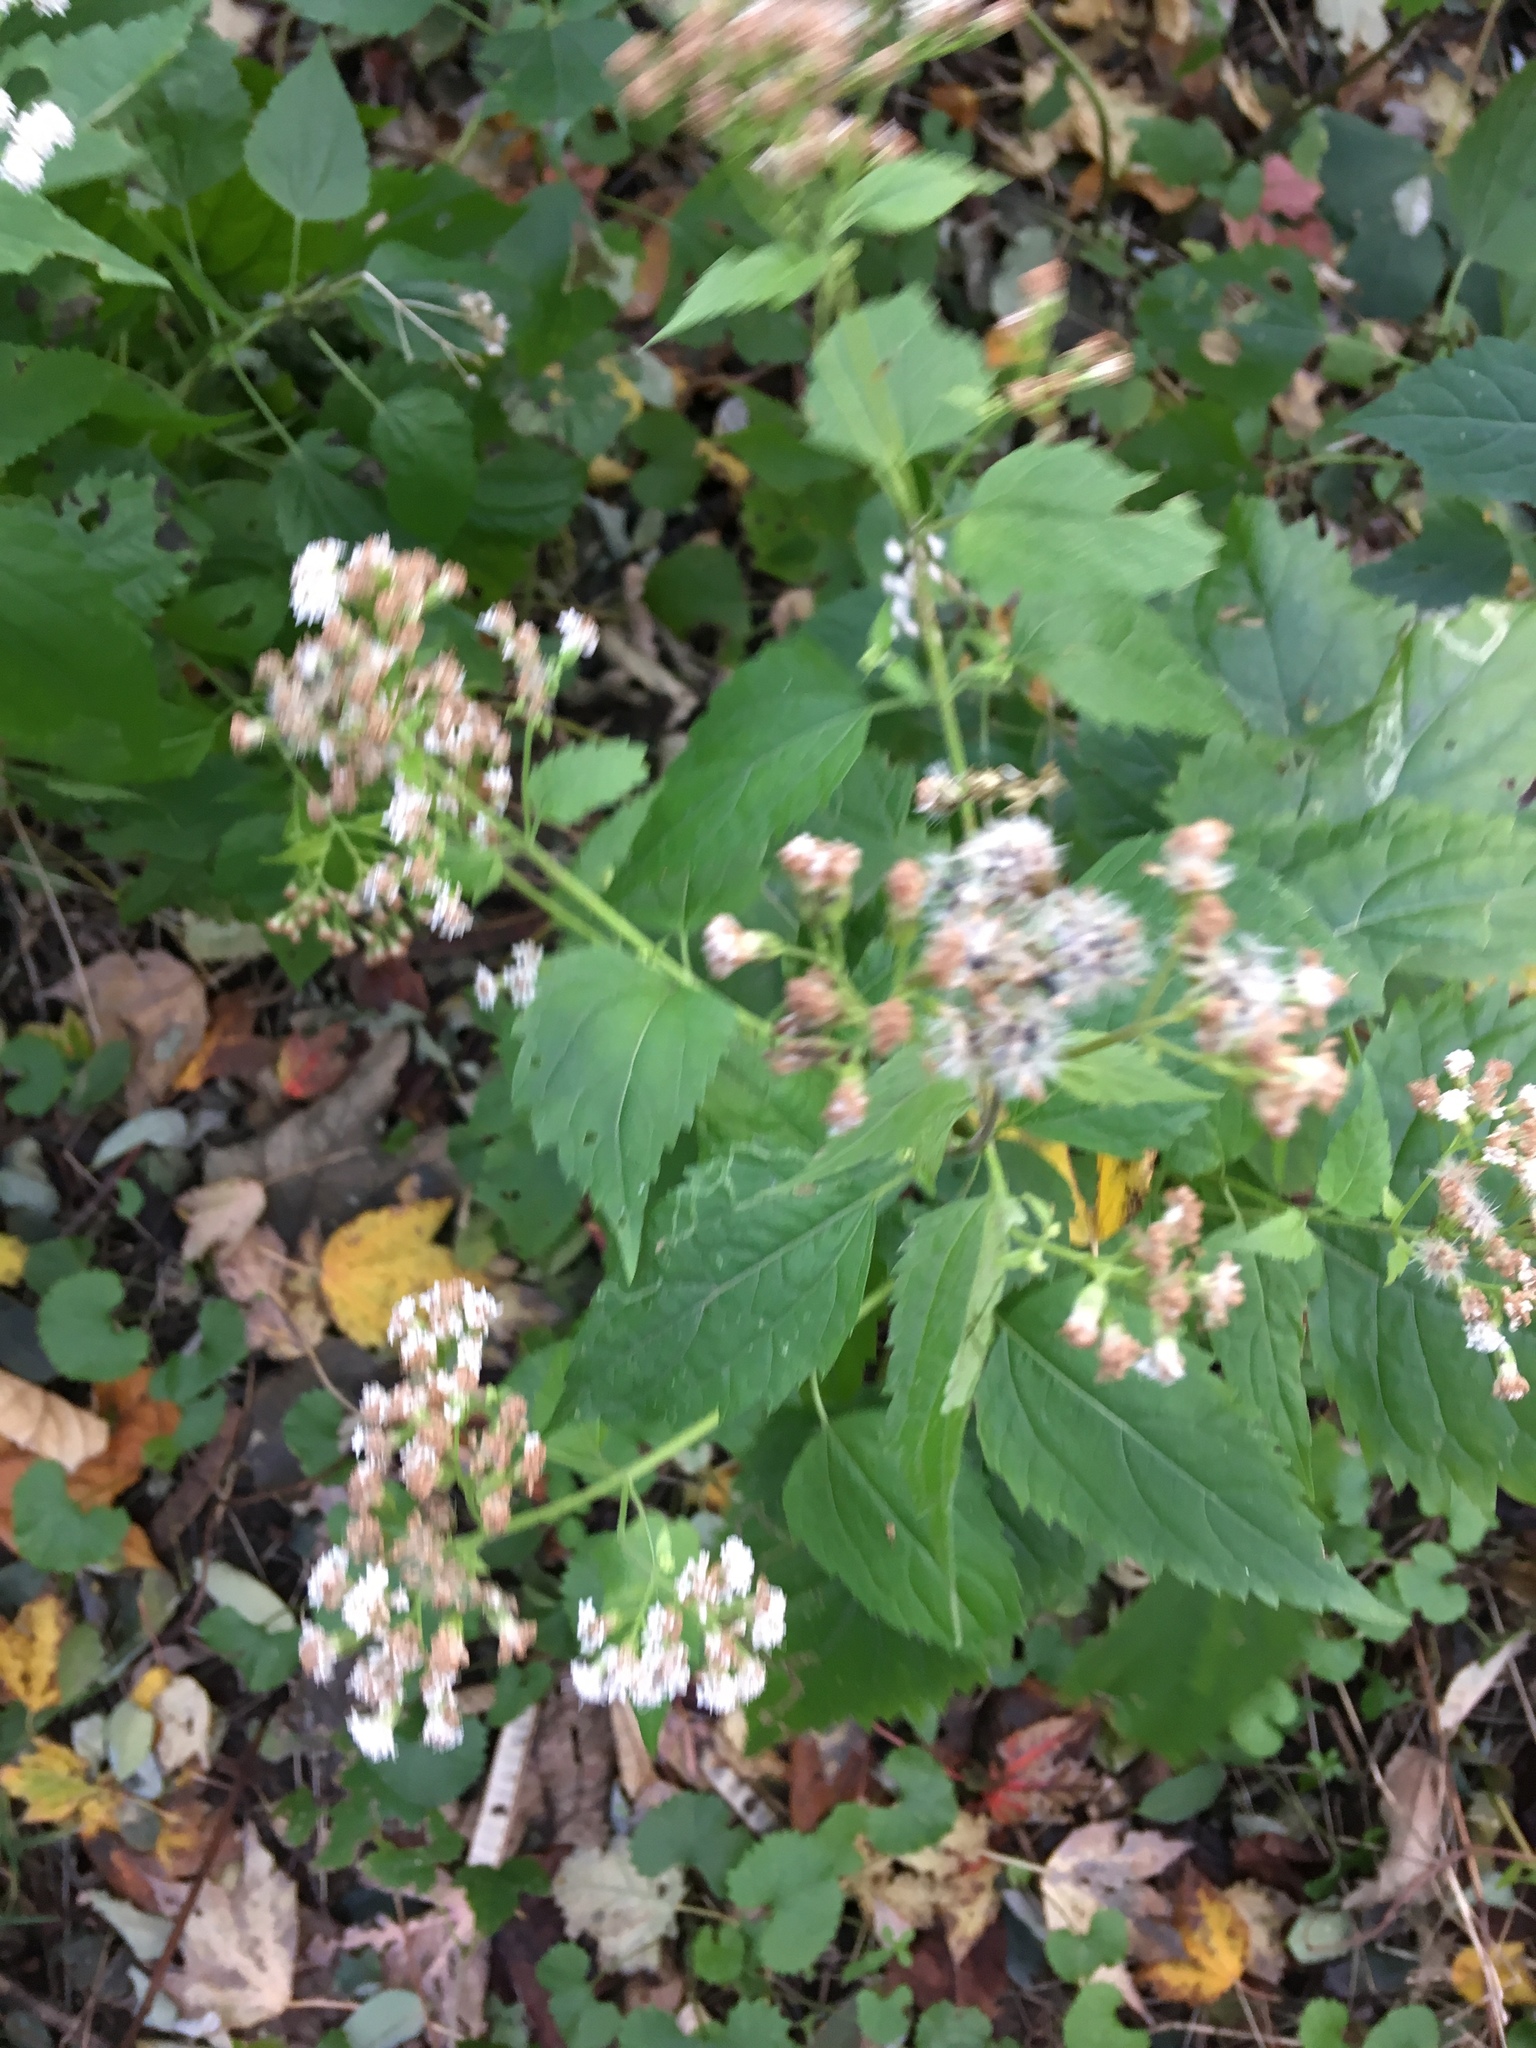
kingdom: Plantae
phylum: Tracheophyta
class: Magnoliopsida
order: Asterales
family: Asteraceae
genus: Ageratina
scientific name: Ageratina altissima
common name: White snakeroot
